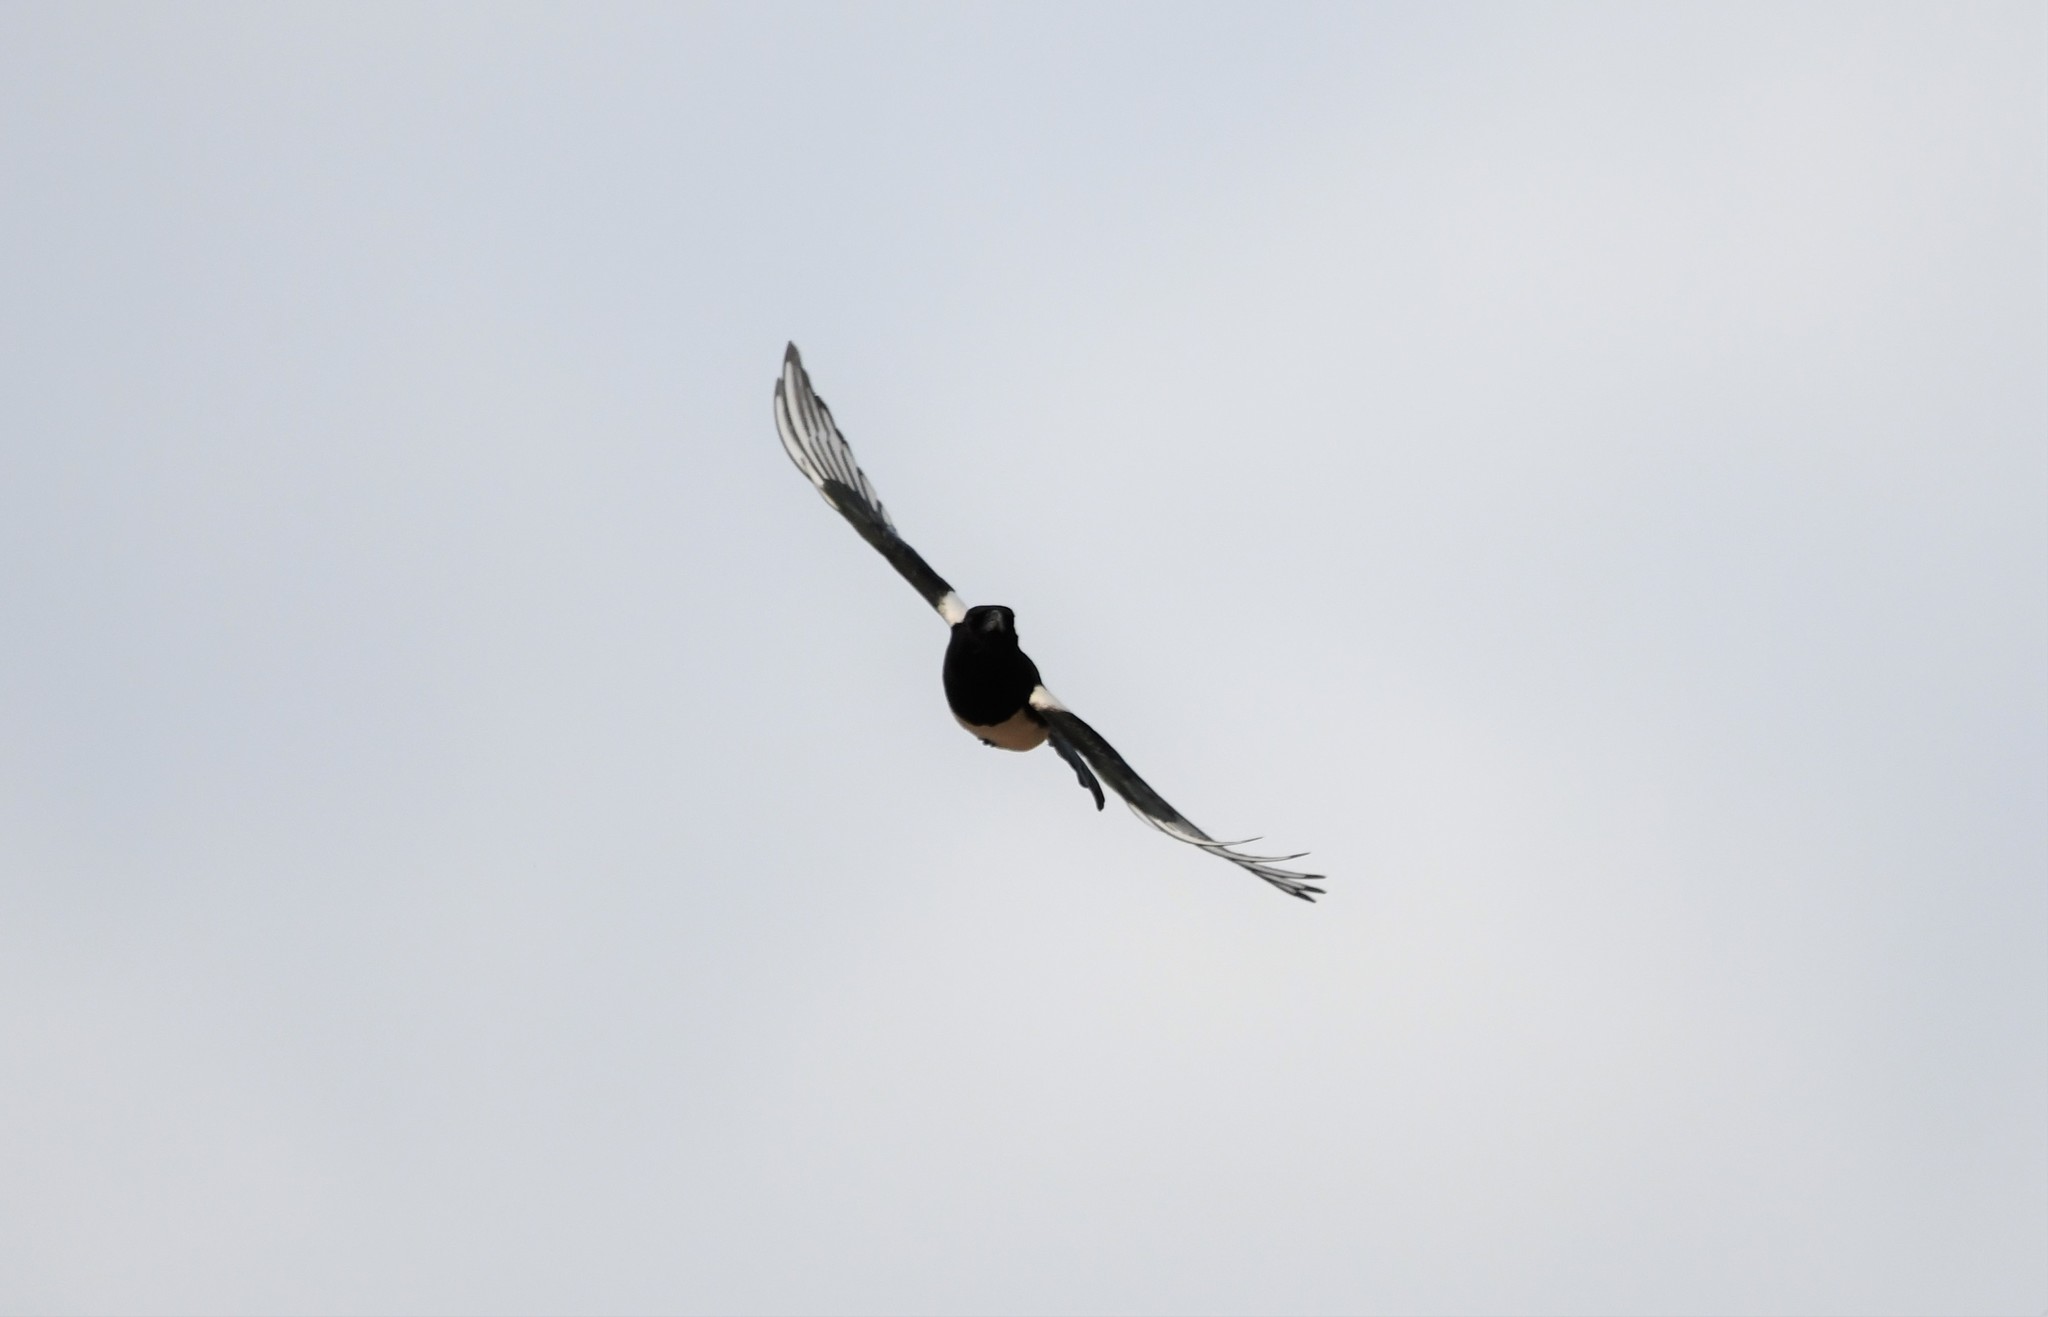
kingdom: Animalia
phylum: Chordata
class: Aves
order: Passeriformes
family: Corvidae
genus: Pica
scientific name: Pica pica
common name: Eurasian magpie
